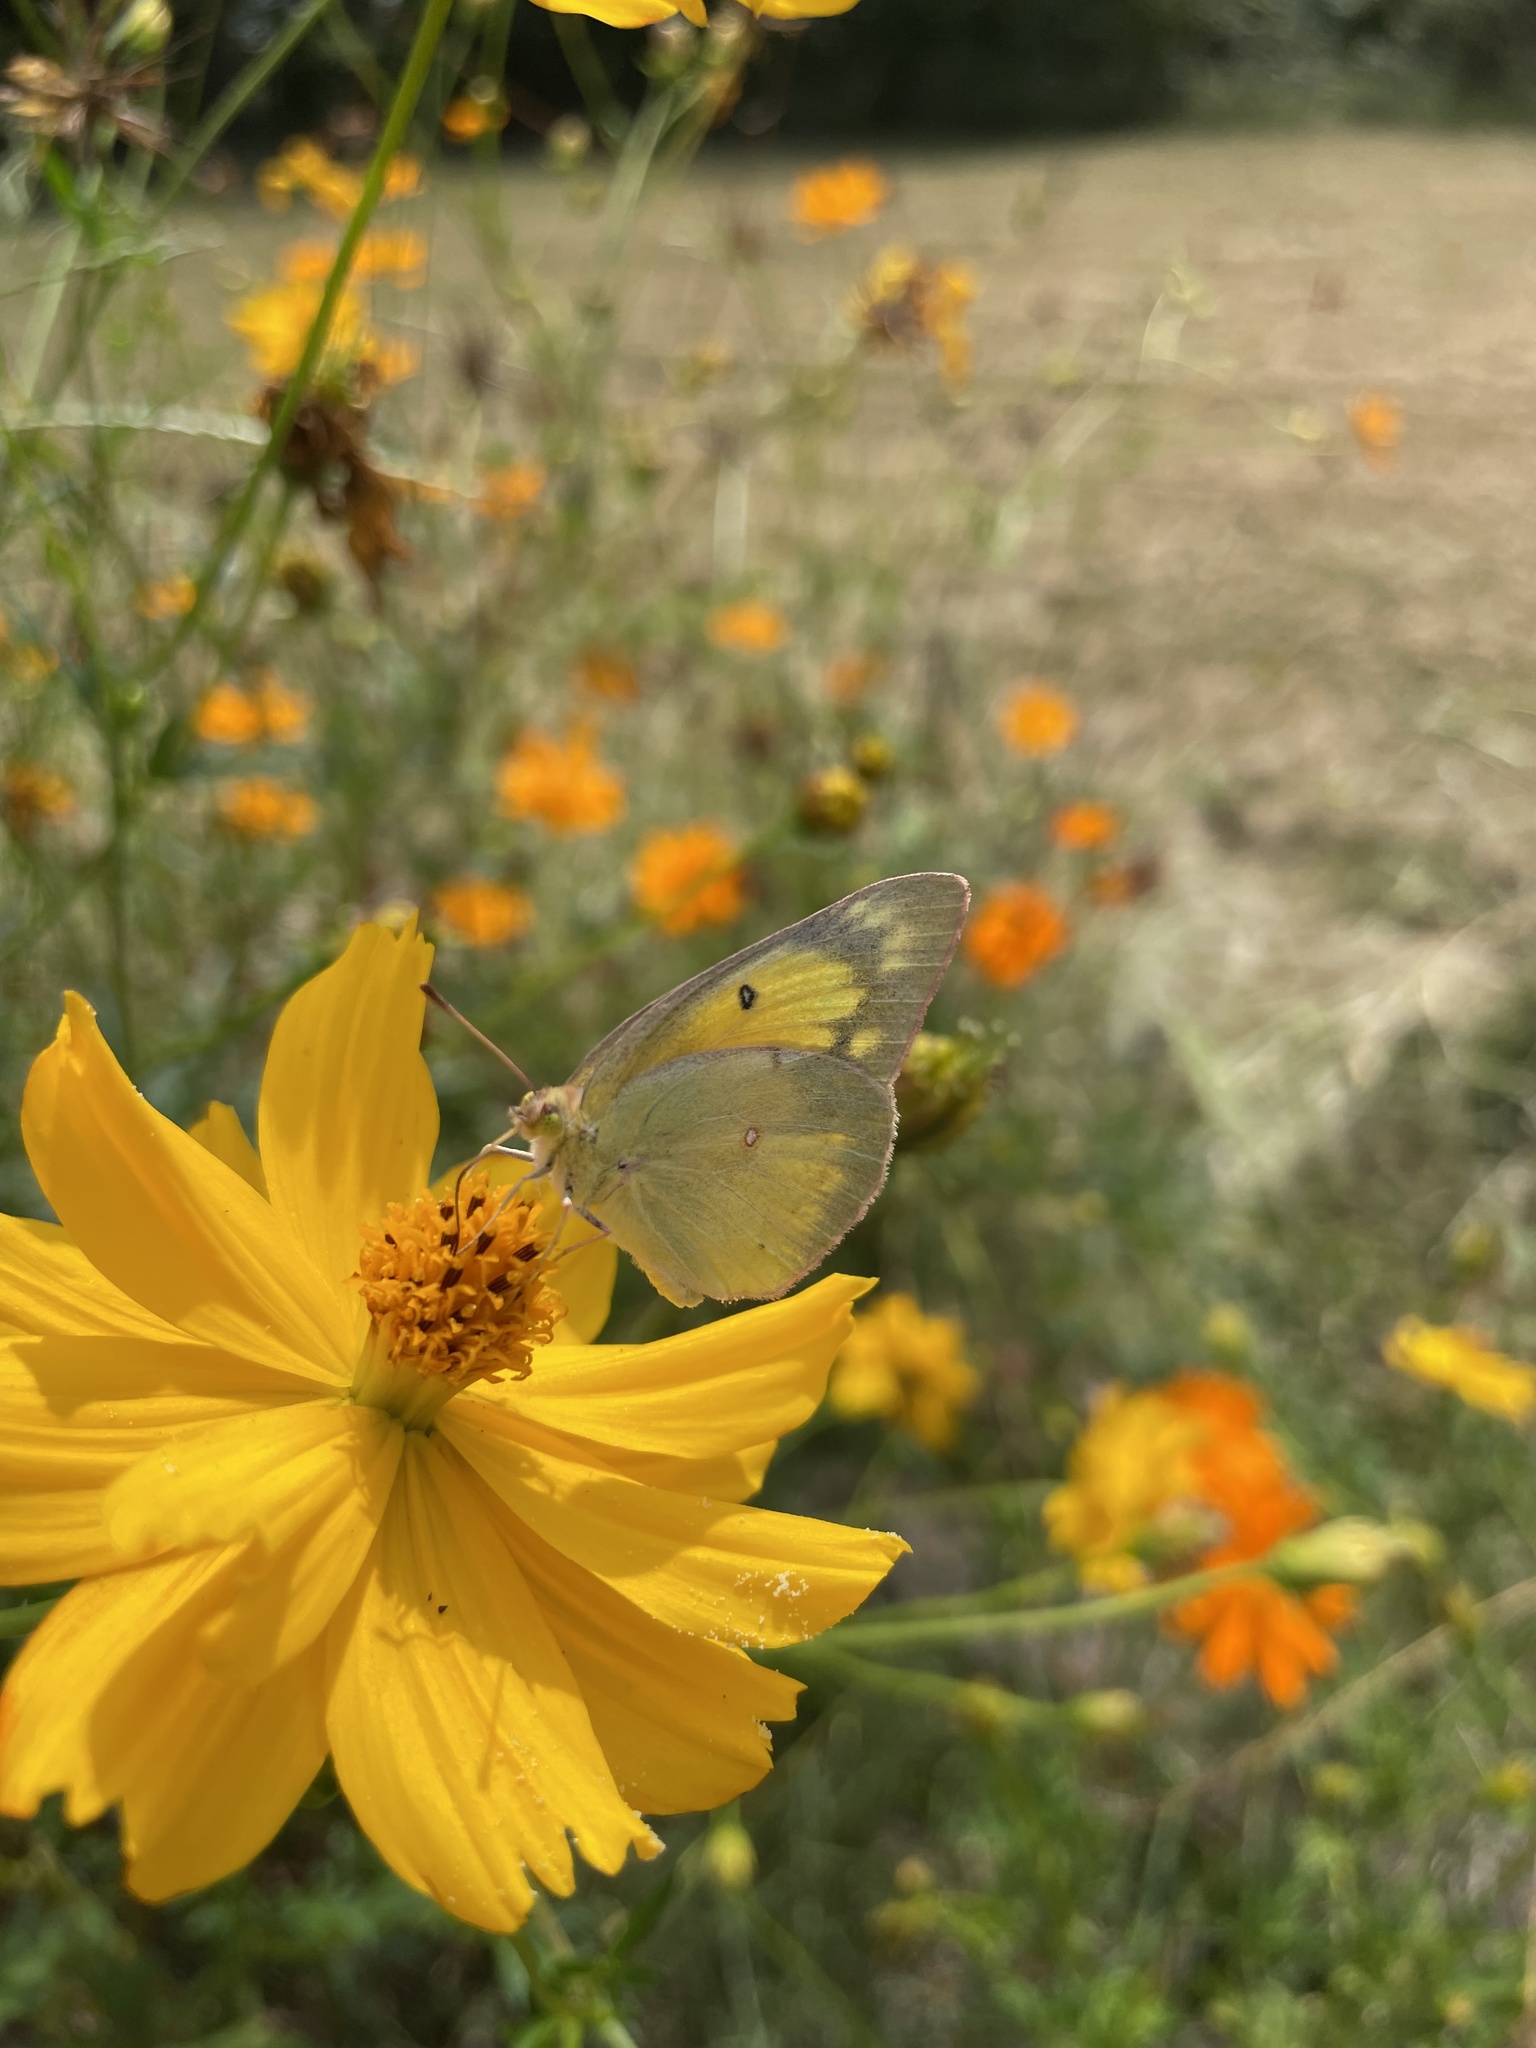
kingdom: Animalia
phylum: Arthropoda
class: Insecta
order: Lepidoptera
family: Pieridae
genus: Colias
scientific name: Colias eurytheme
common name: Alfalfa butterfly
